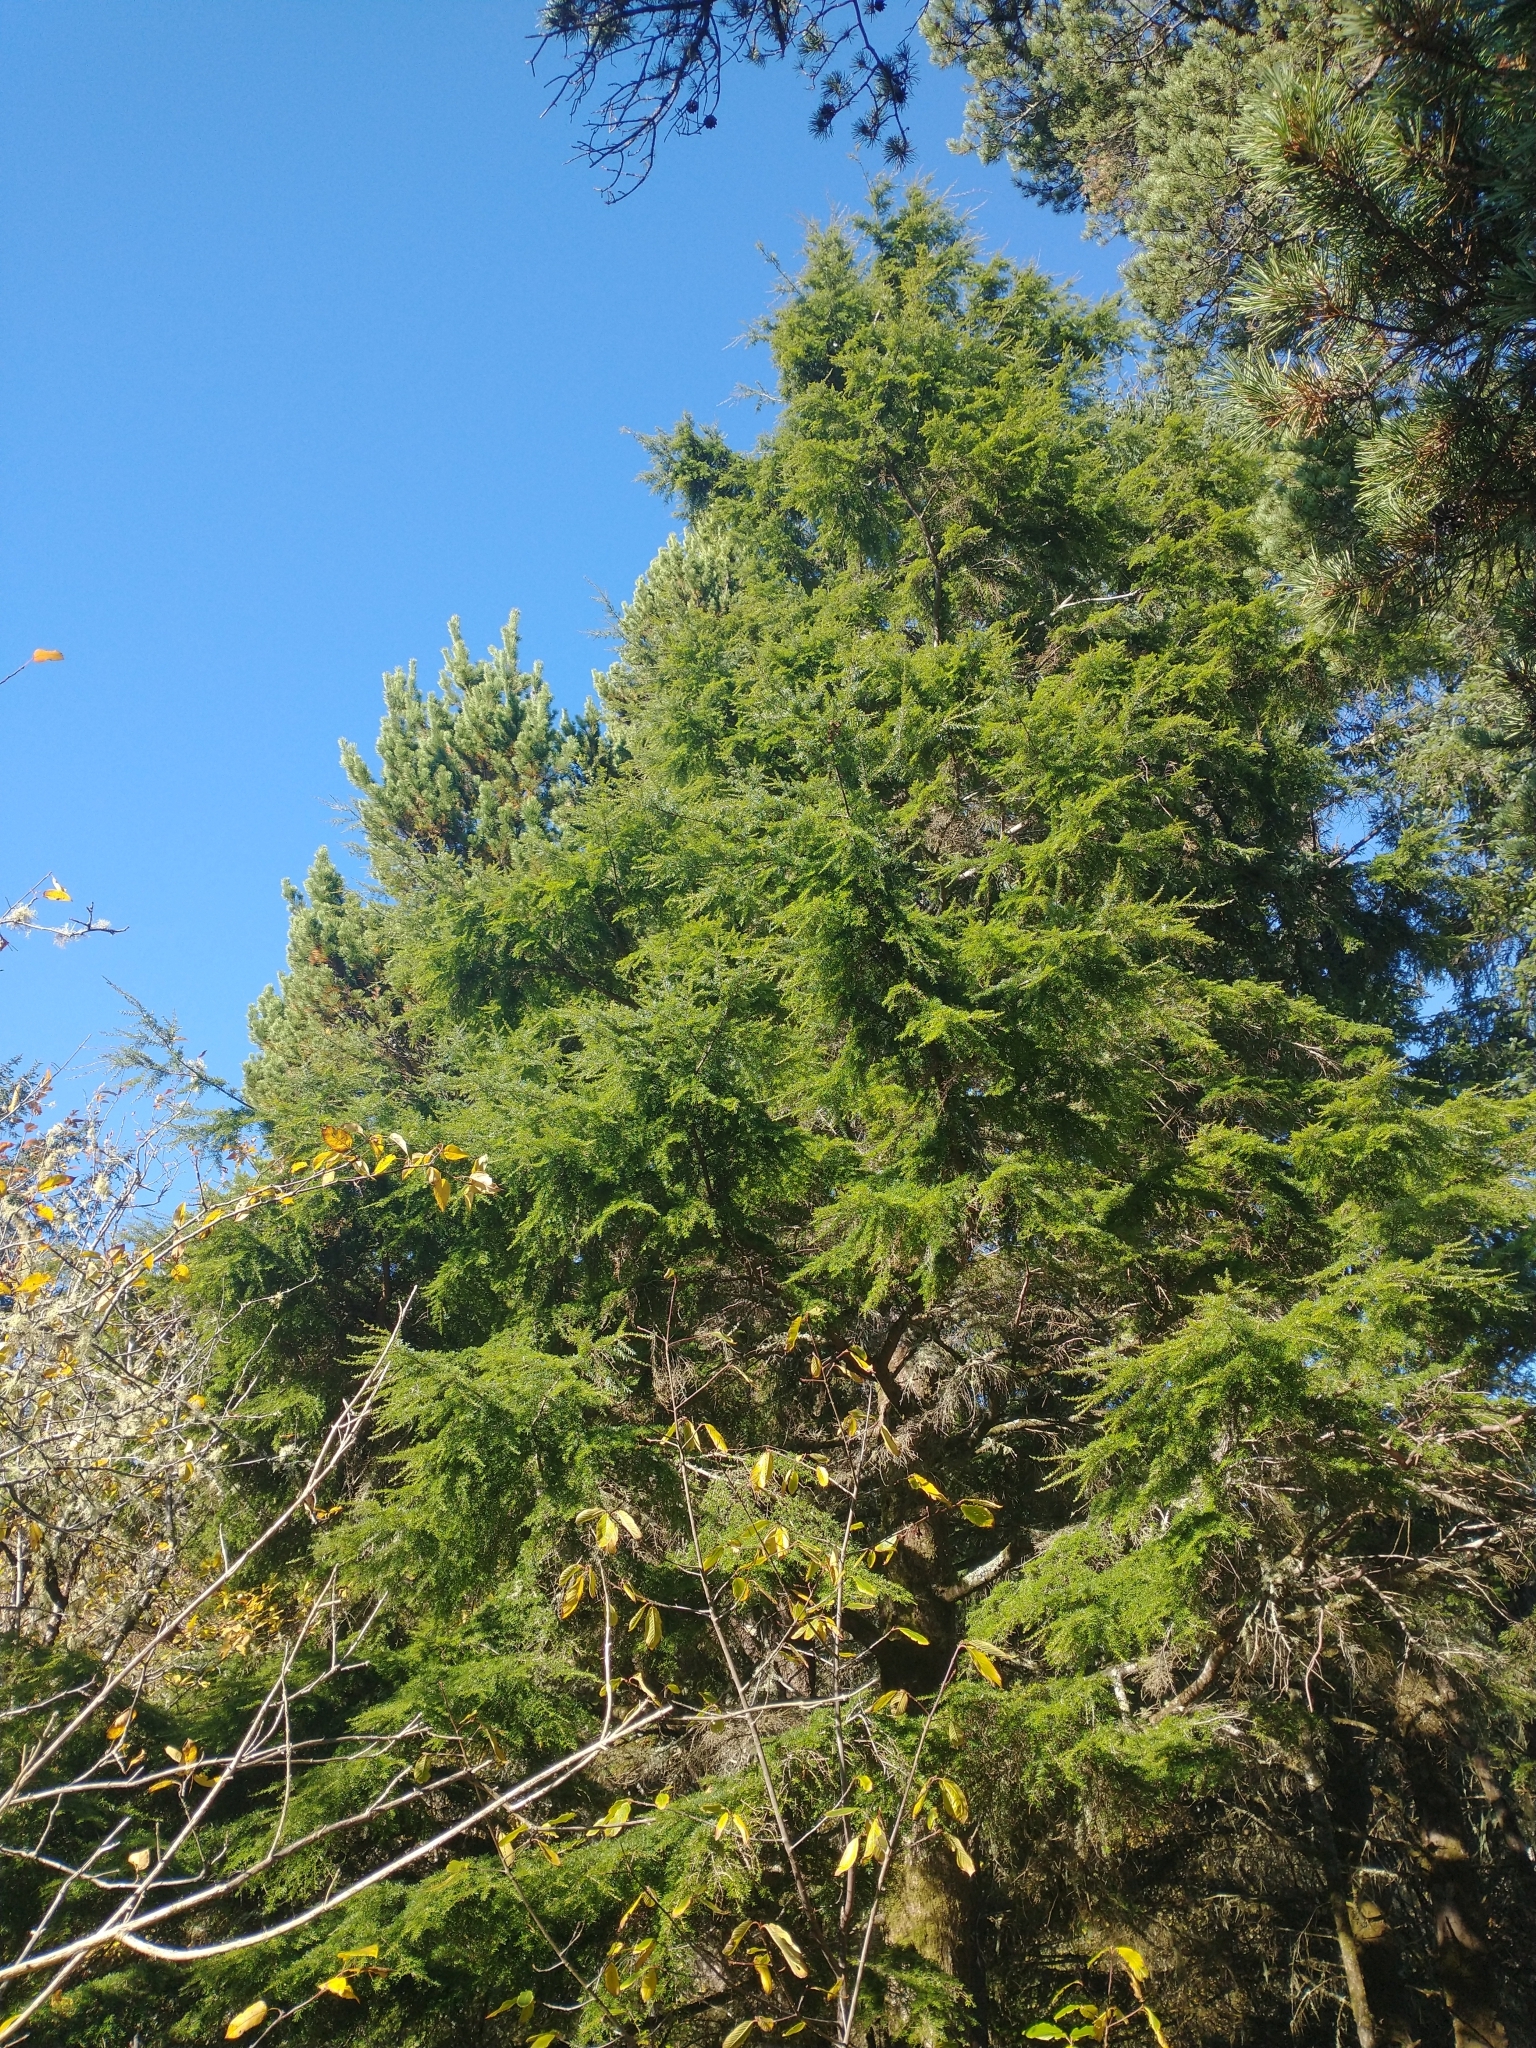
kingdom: Plantae
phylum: Tracheophyta
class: Pinopsida
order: Pinales
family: Pinaceae
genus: Tsuga
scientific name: Tsuga heterophylla
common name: Western hemlock
